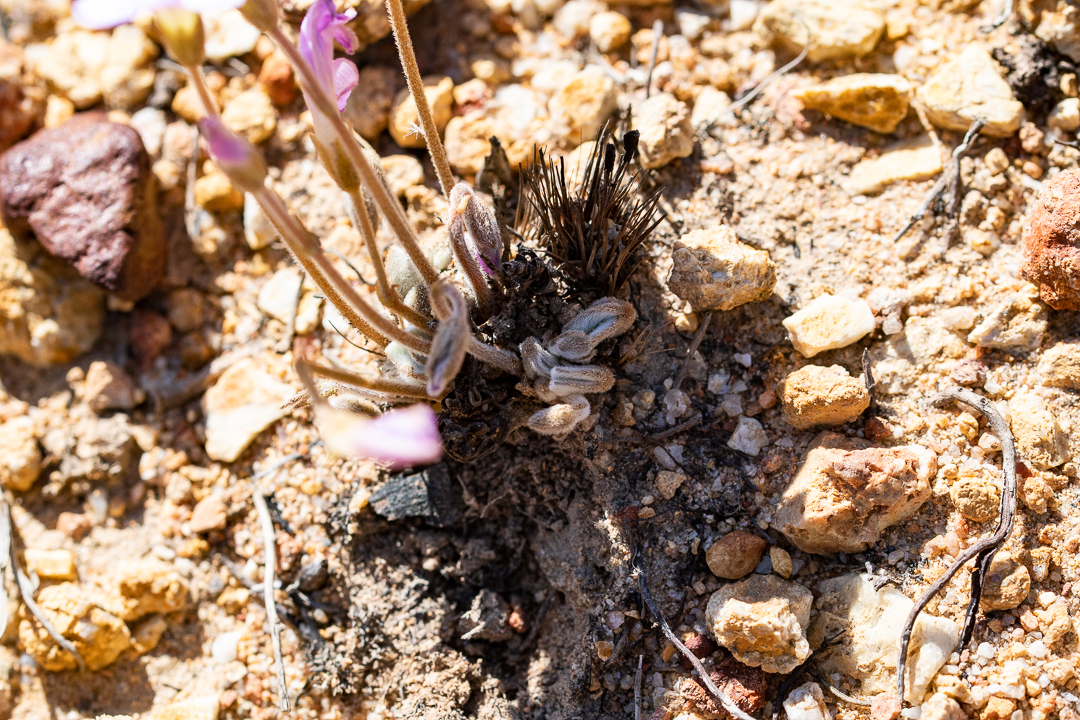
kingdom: Plantae
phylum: Tracheophyta
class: Magnoliopsida
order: Oxalidales
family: Oxalidaceae
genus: Oxalis
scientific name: Oxalis truncatula
